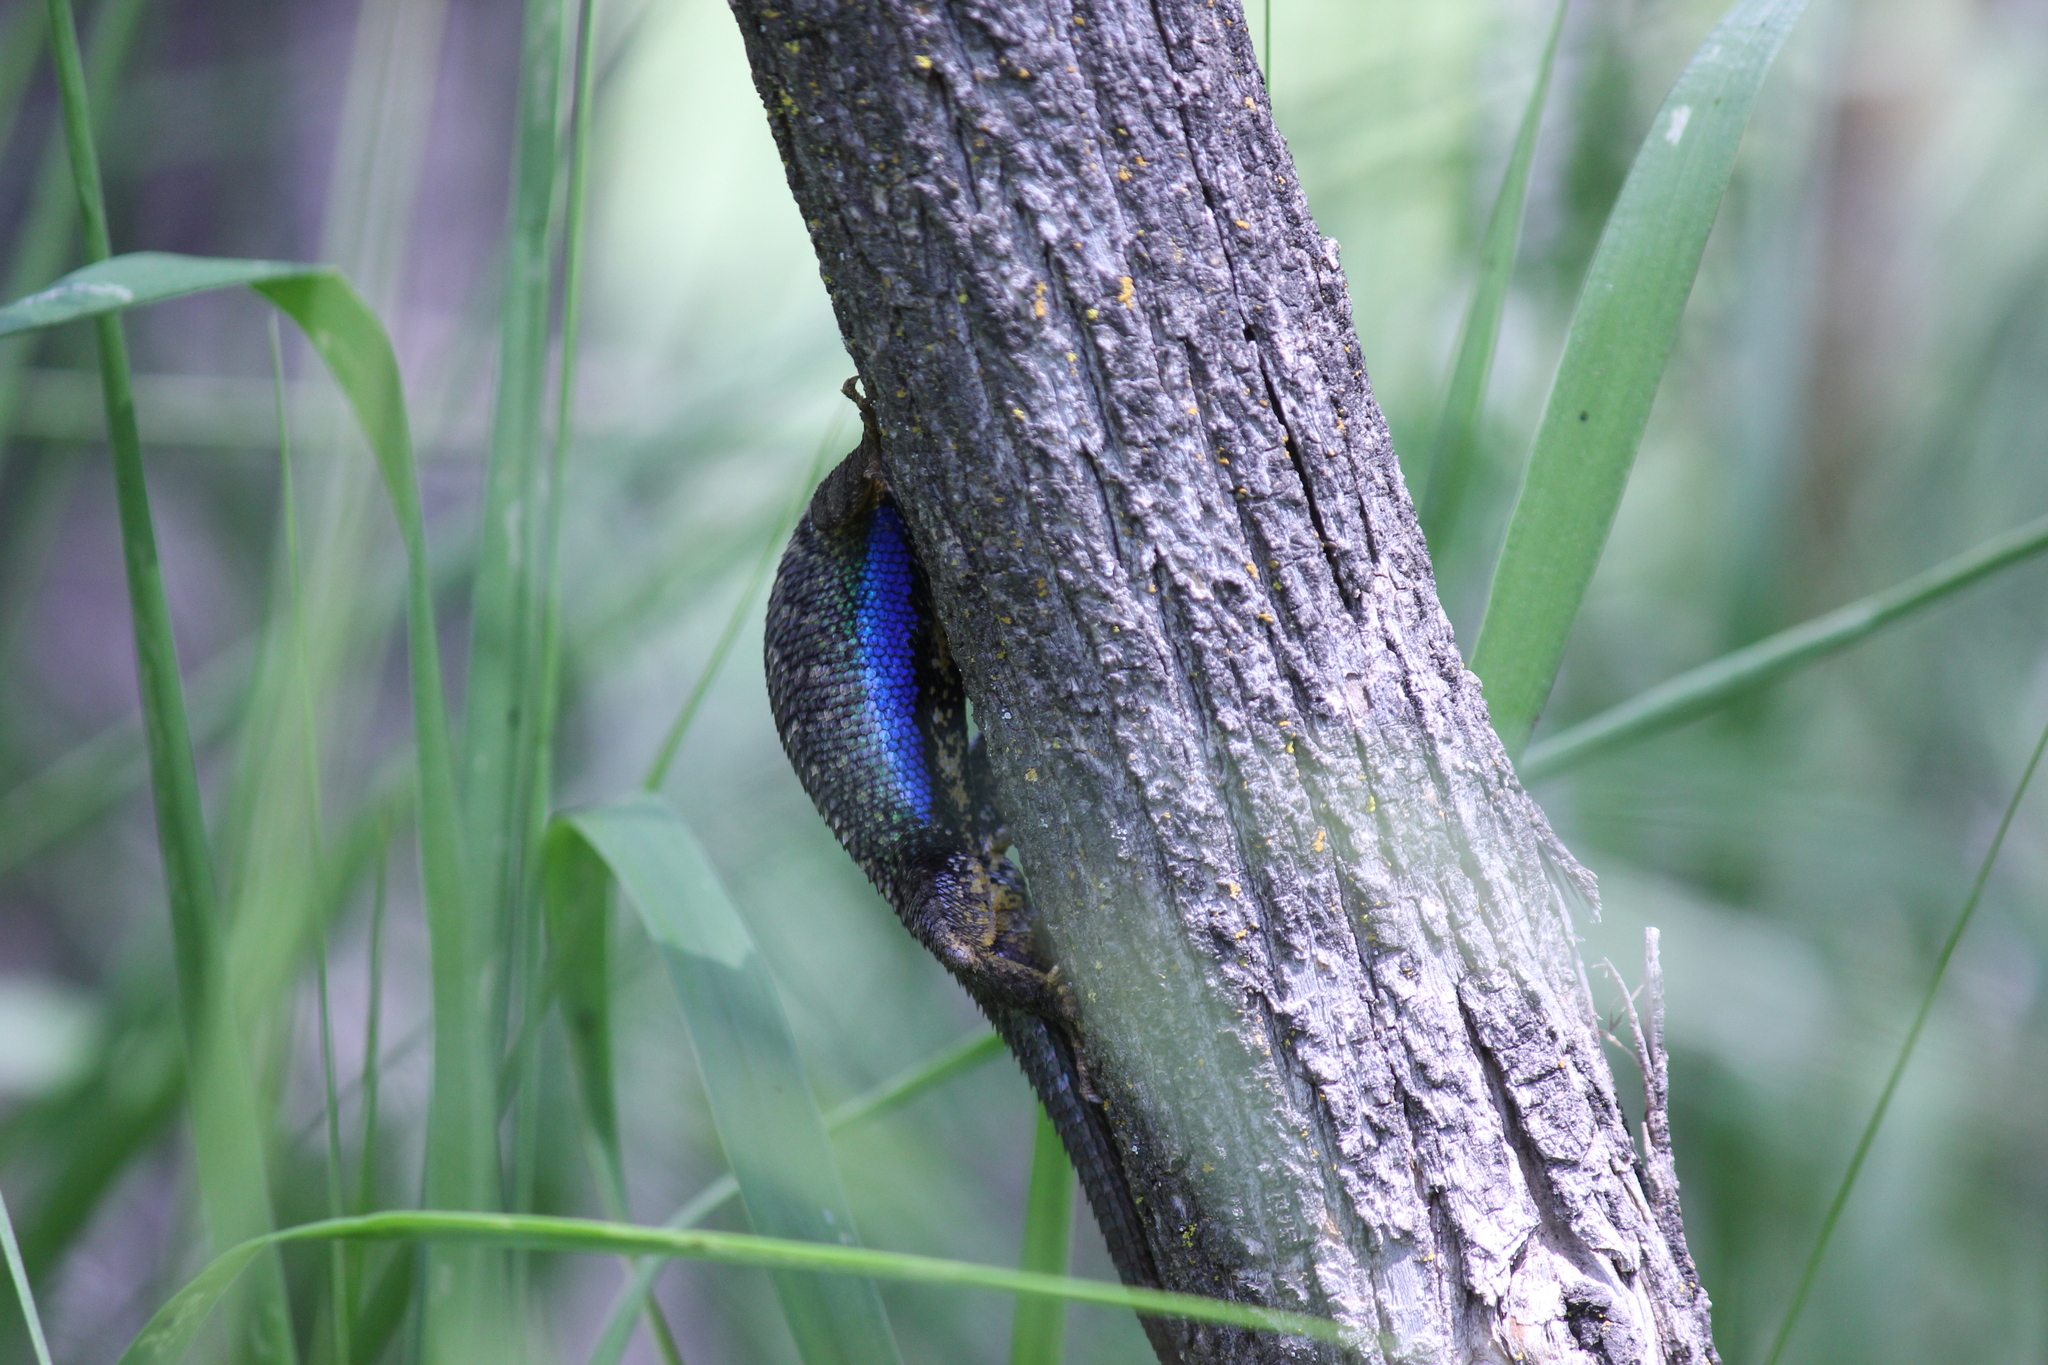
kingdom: Animalia
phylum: Chordata
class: Squamata
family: Phrynosomatidae
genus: Sceloporus
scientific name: Sceloporus occidentalis
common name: Western fence lizard
